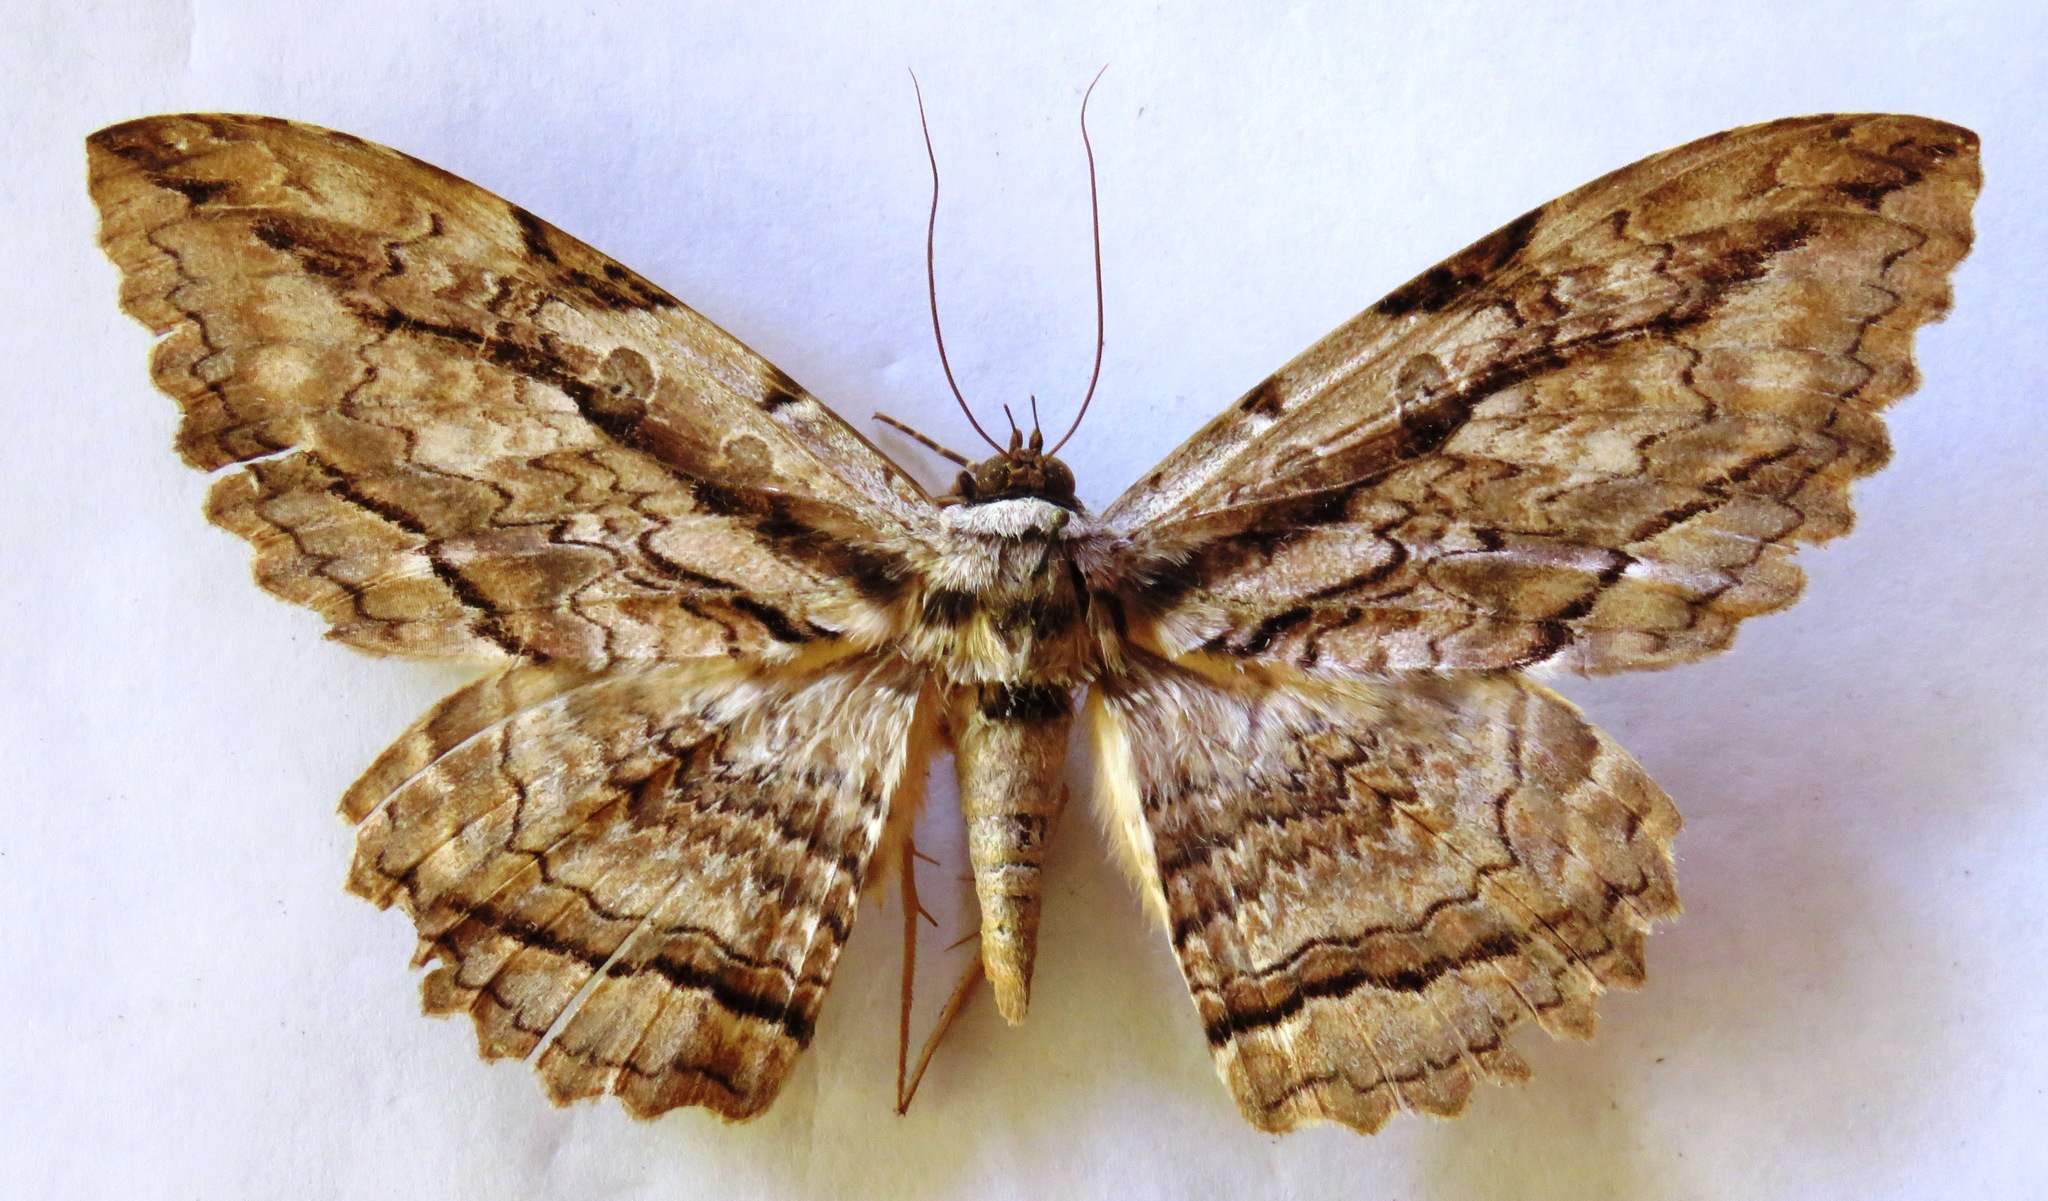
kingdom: Animalia
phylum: Arthropoda
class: Insecta
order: Lepidoptera
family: Erebidae
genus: Thysania
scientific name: Thysania zenobia
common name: Owl moth
